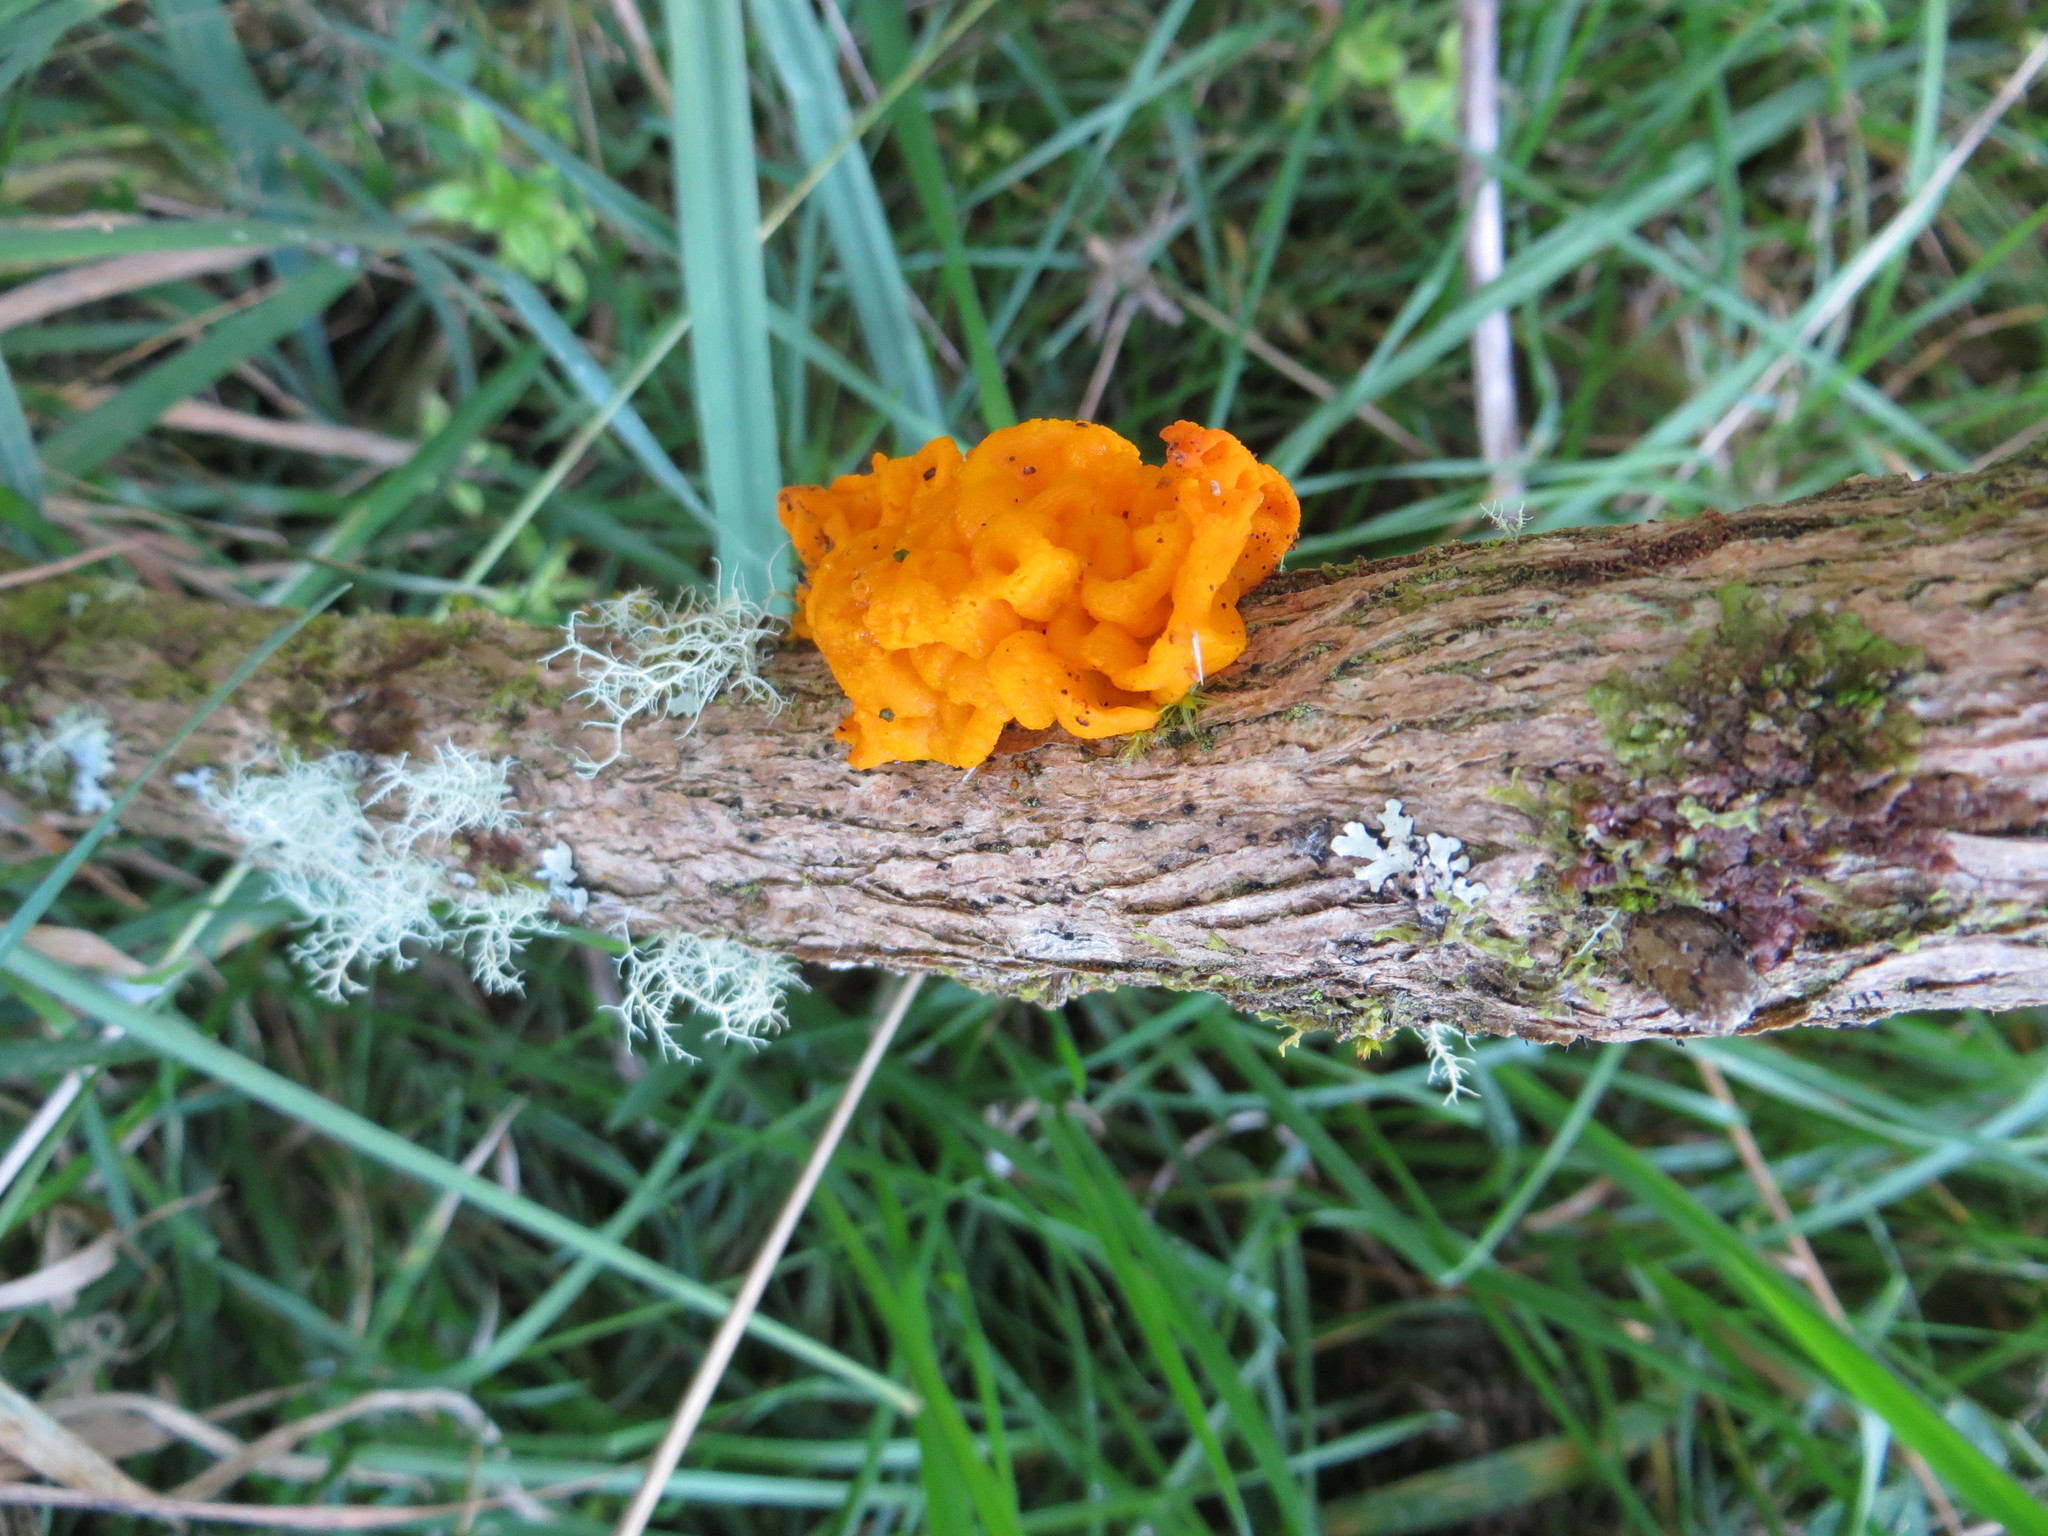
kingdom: Fungi
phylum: Basidiomycota
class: Tremellomycetes
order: Tremellales
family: Tremellaceae
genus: Tremella
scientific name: Tremella mesenterica
